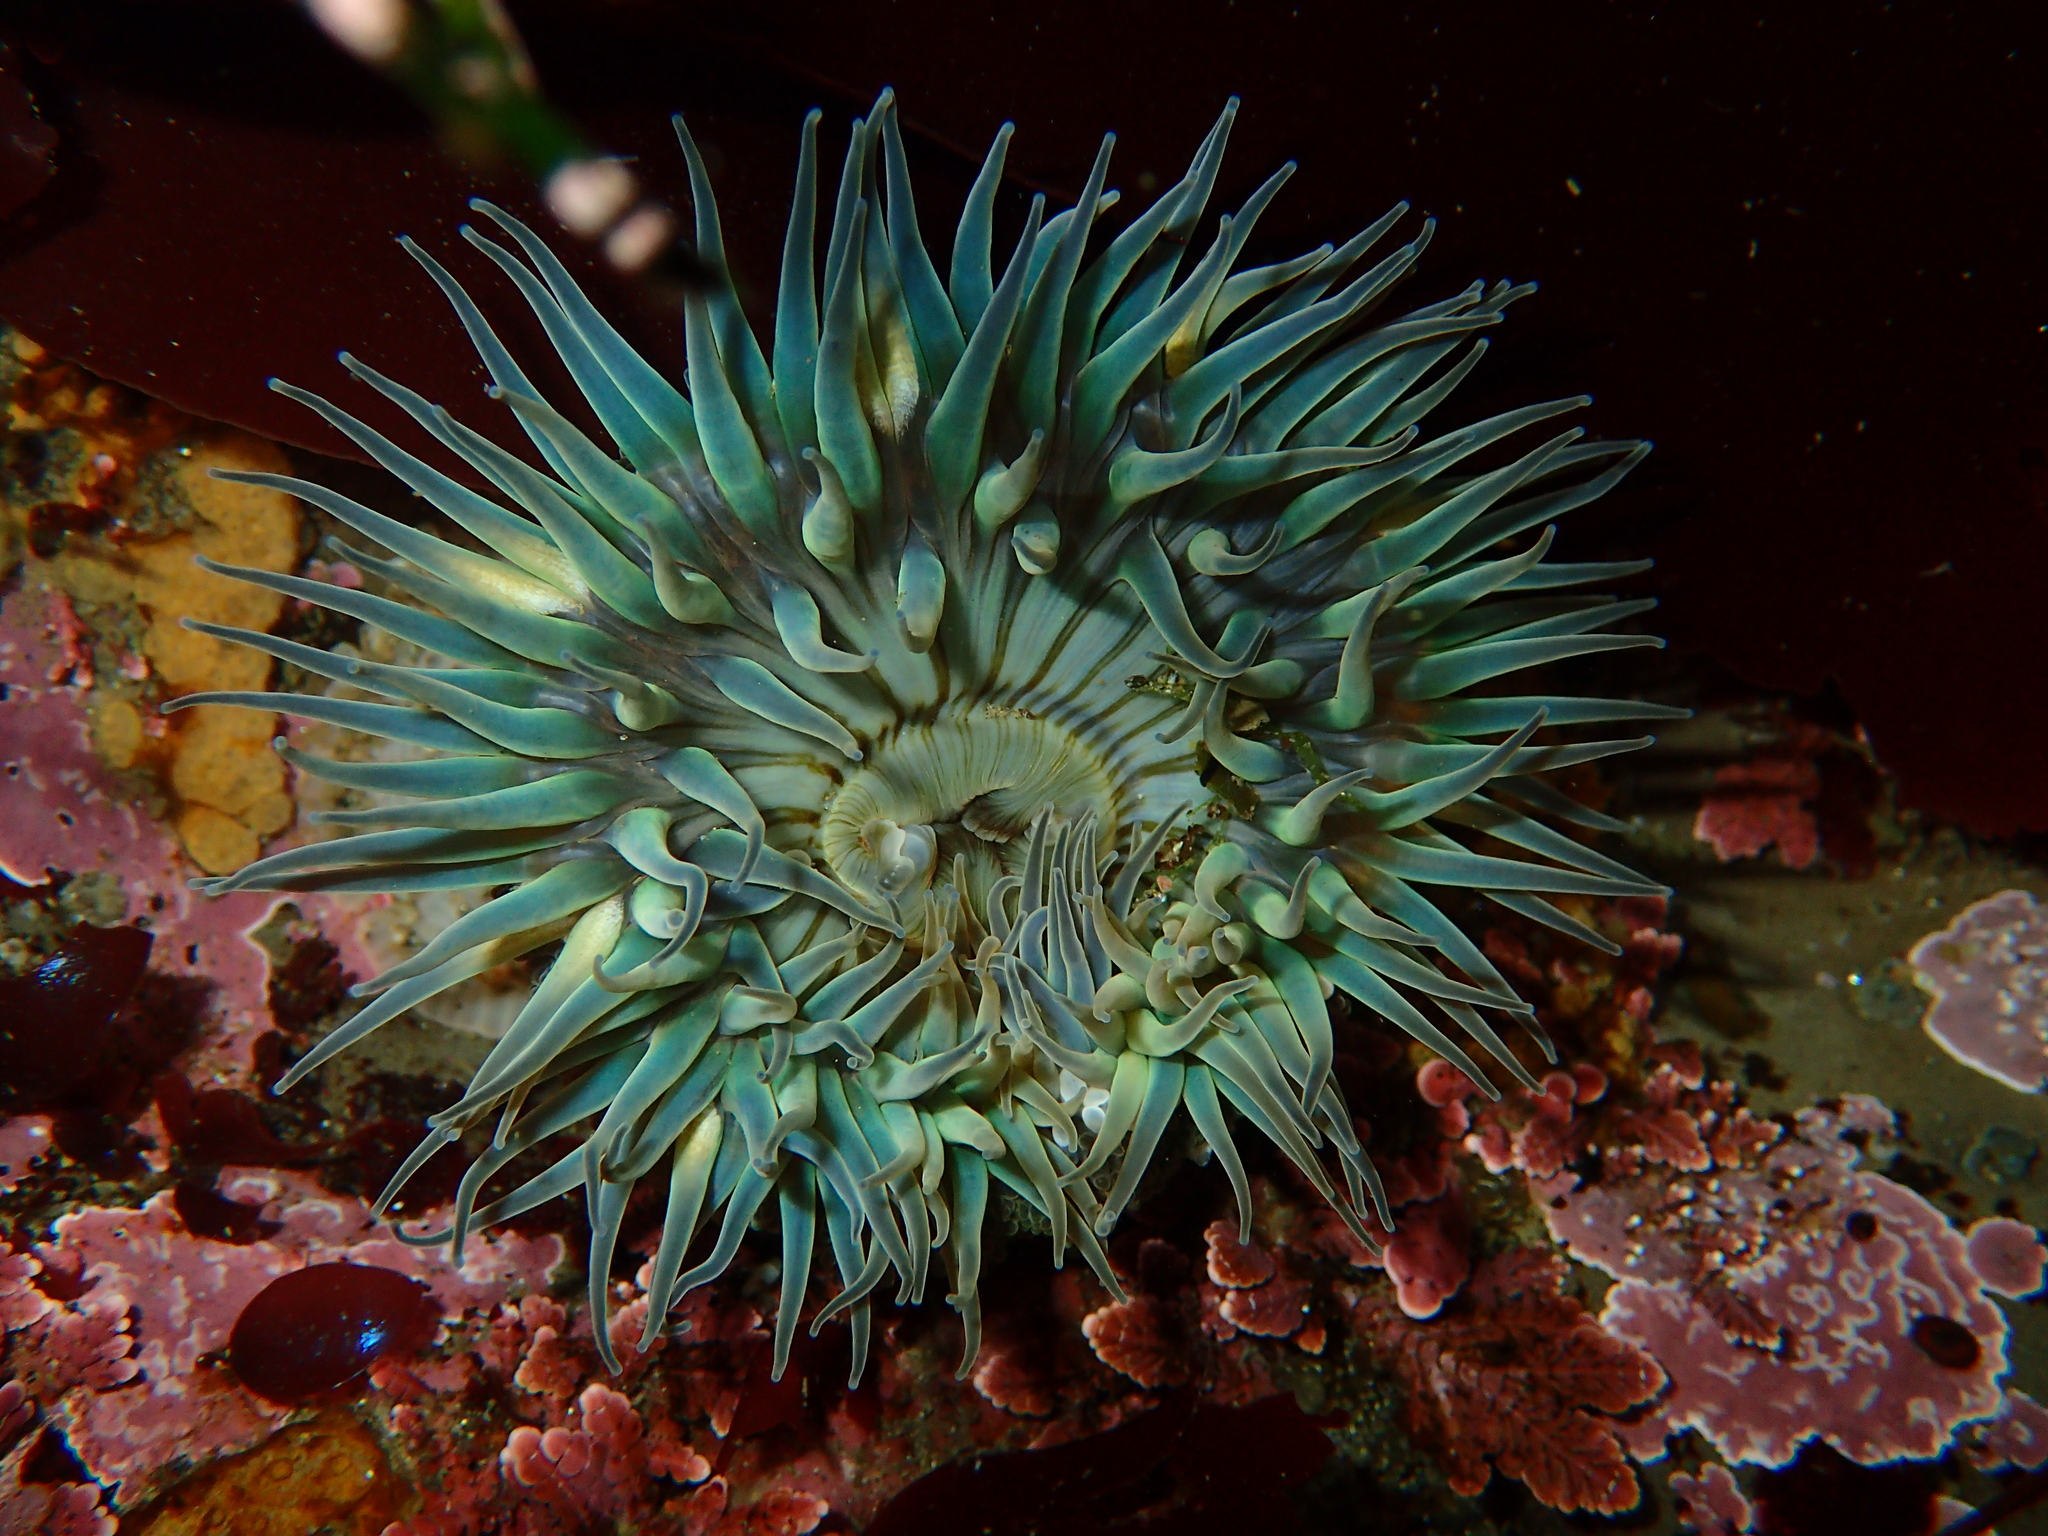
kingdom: Animalia
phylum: Cnidaria
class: Anthozoa
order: Actiniaria
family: Actiniidae
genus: Anthopleura
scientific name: Anthopleura sola
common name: Sun anemone
